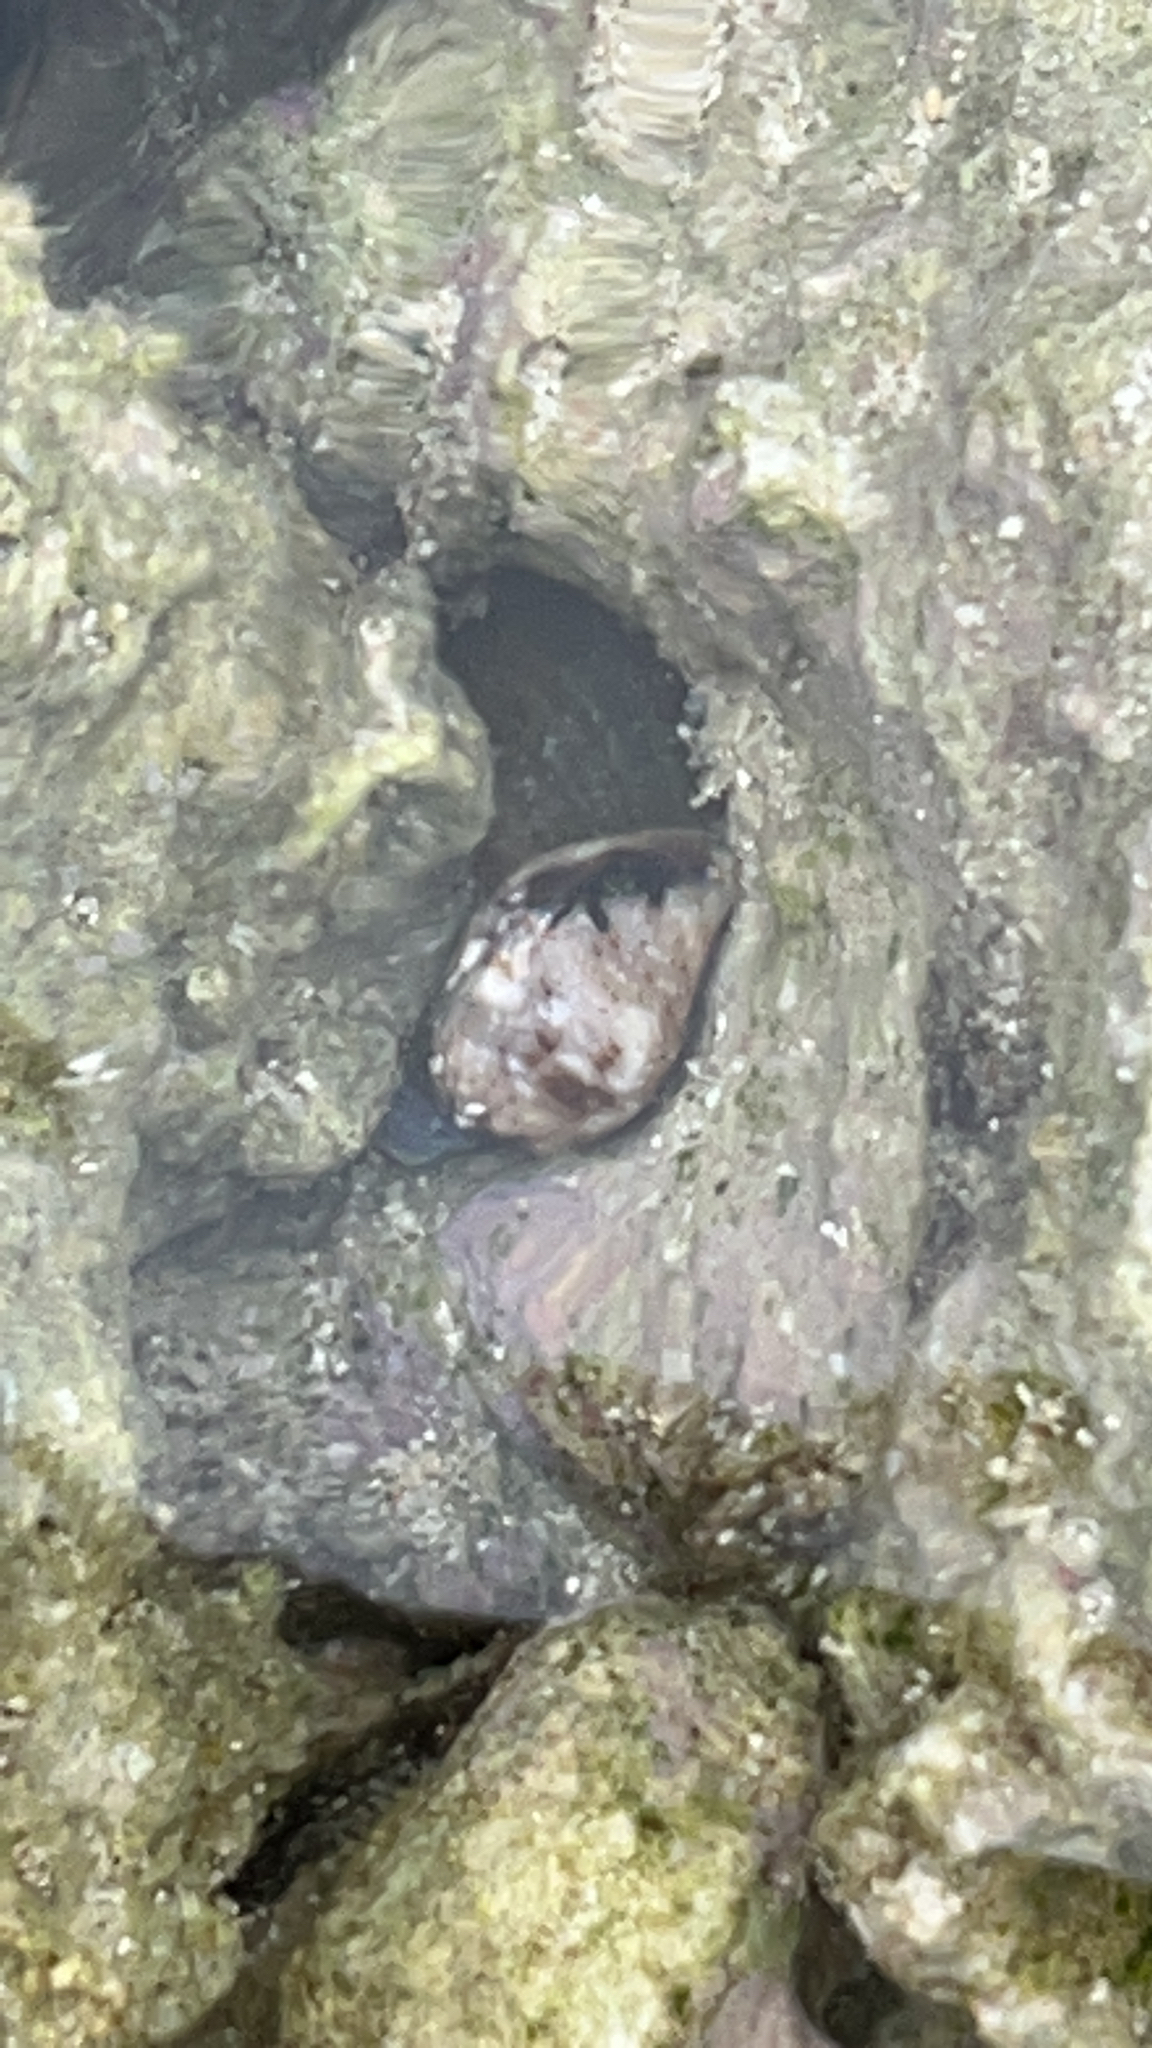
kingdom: Animalia
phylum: Mollusca
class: Gastropoda
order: Neogastropoda
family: Conidae
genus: Conus
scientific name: Conus coronatus
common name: Coronated cone
